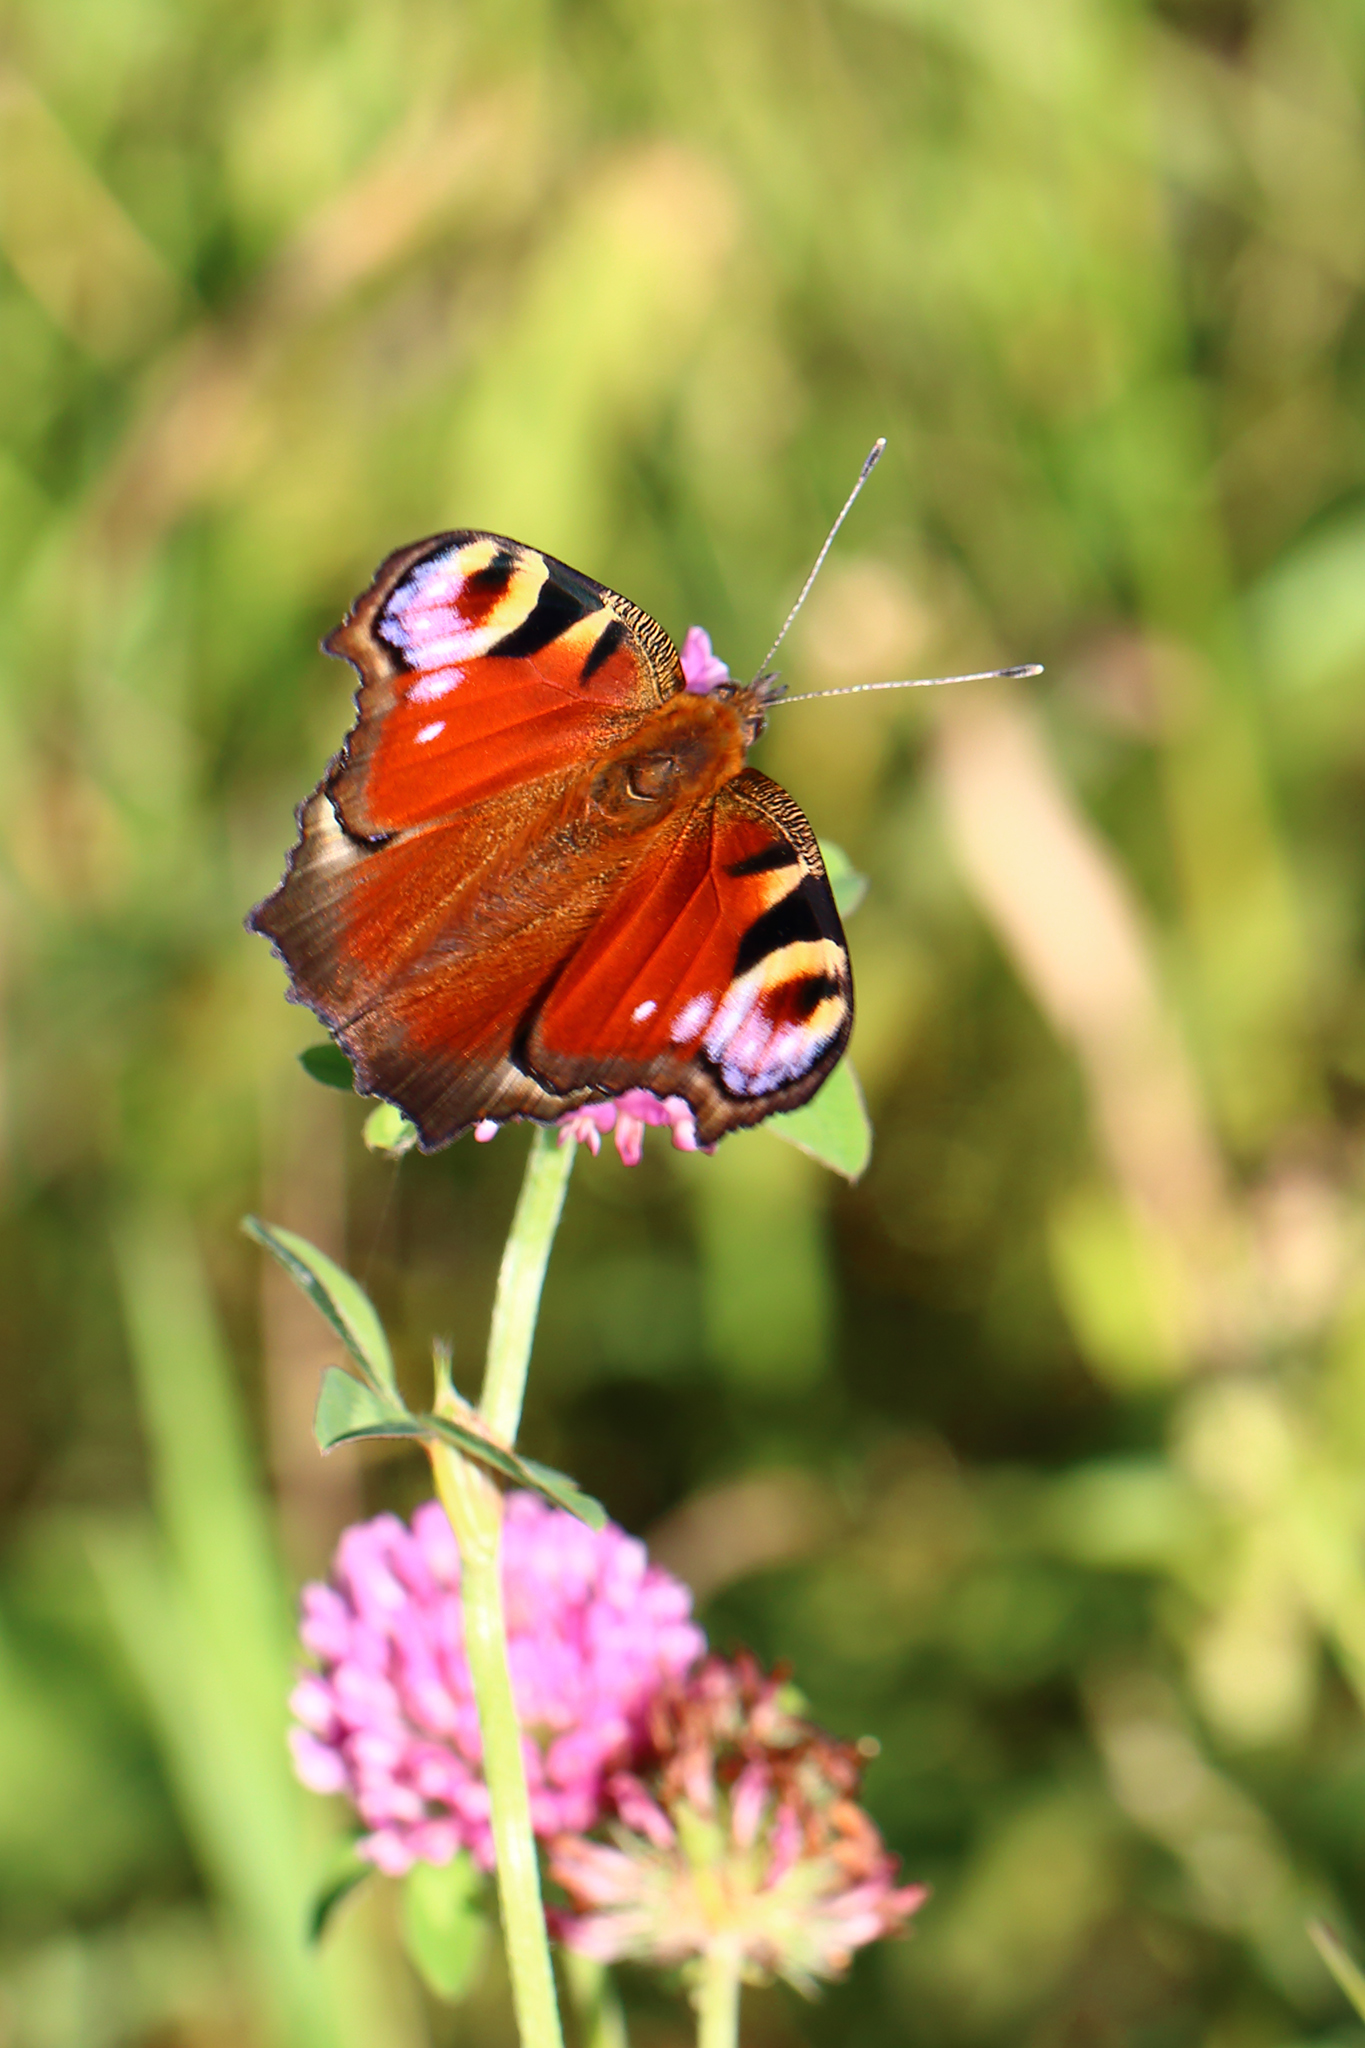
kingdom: Animalia
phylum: Arthropoda
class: Insecta
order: Lepidoptera
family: Nymphalidae
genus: Aglais
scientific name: Aglais io
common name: Peacock
